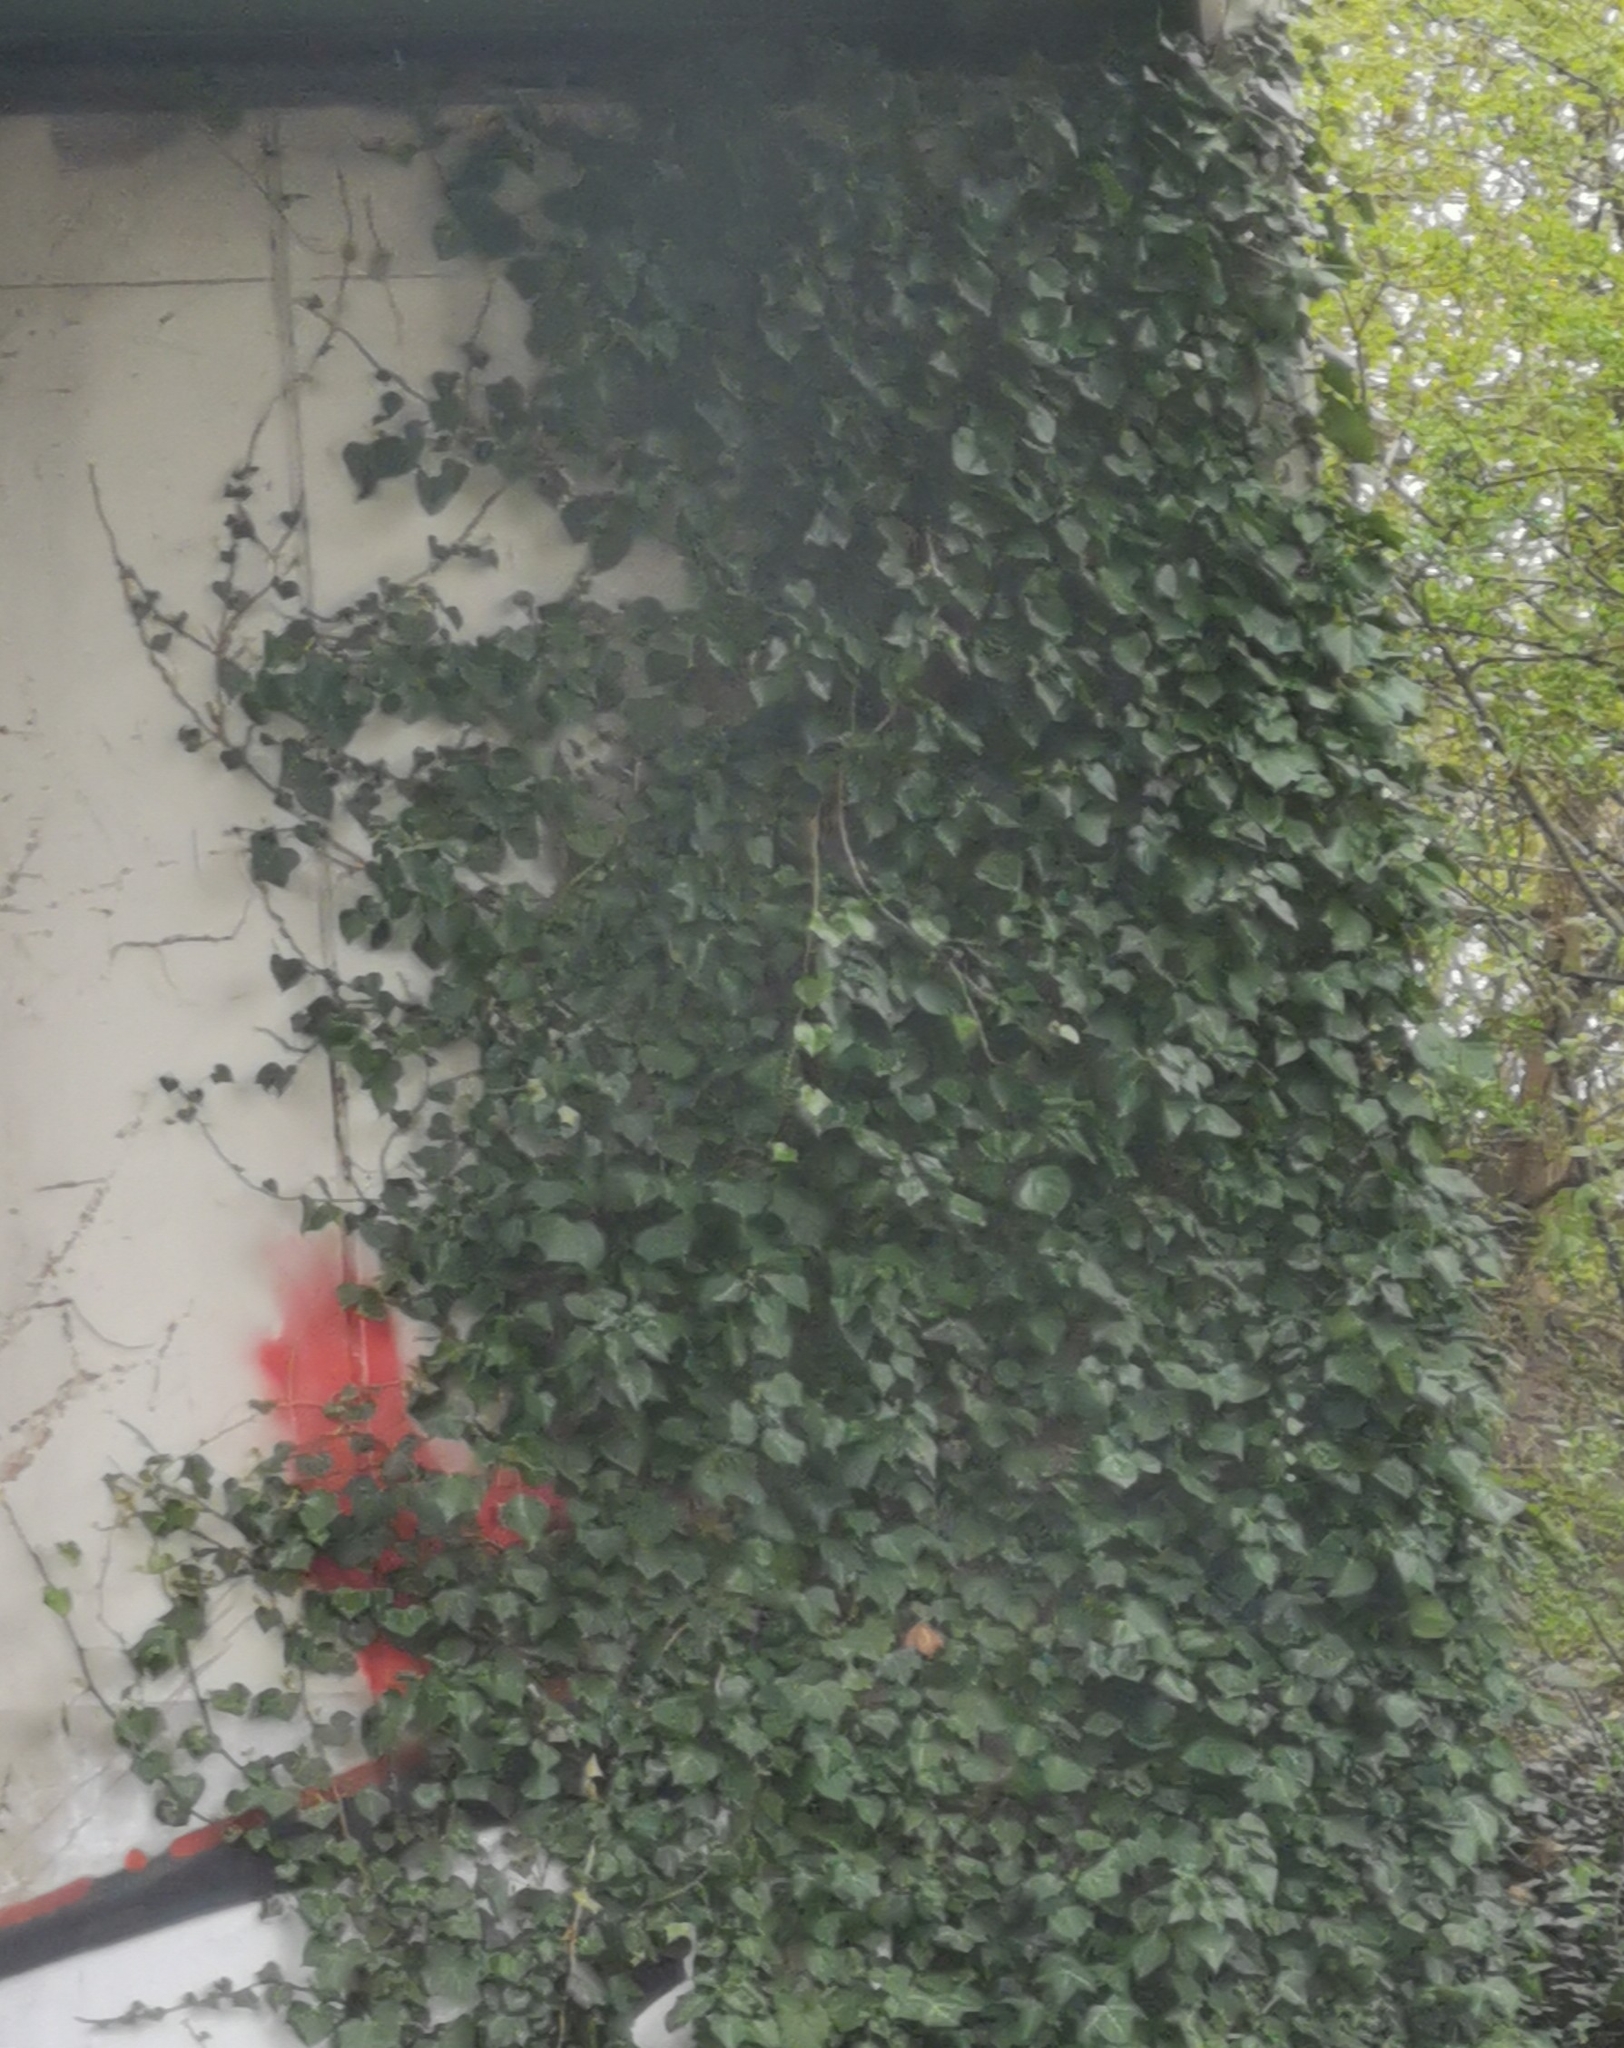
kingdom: Plantae
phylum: Tracheophyta
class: Magnoliopsida
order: Apiales
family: Araliaceae
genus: Hedera
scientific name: Hedera helix
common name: Ivy
